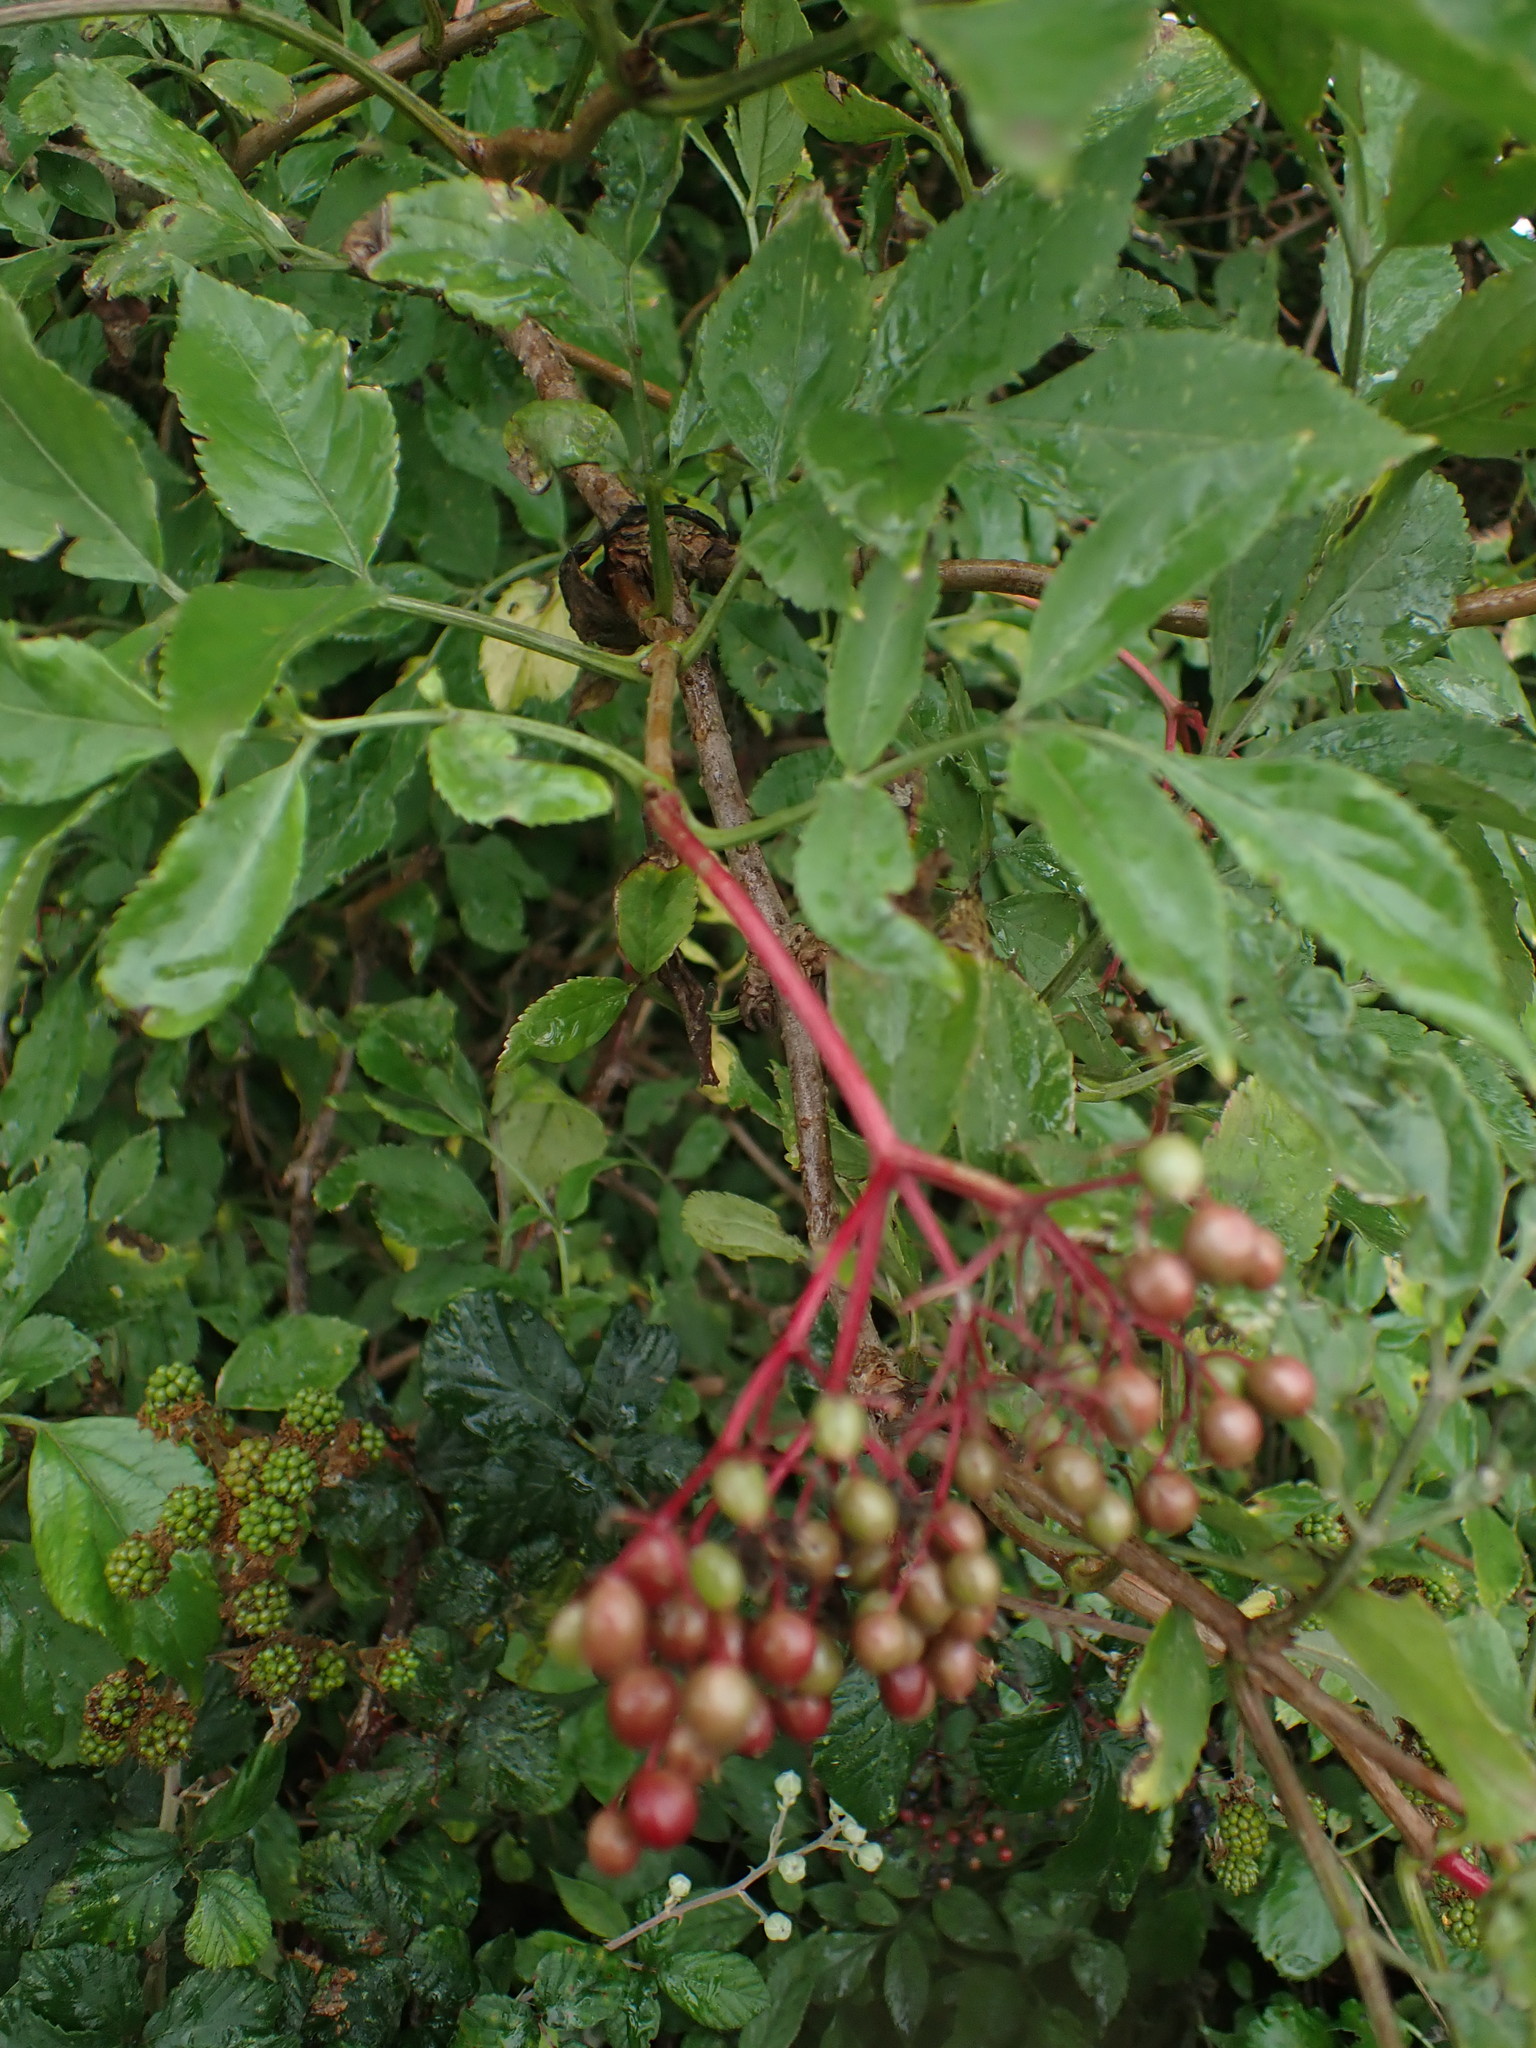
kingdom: Plantae
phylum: Tracheophyta
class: Magnoliopsida
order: Dipsacales
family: Viburnaceae
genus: Sambucus
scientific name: Sambucus nigra
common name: Elder
